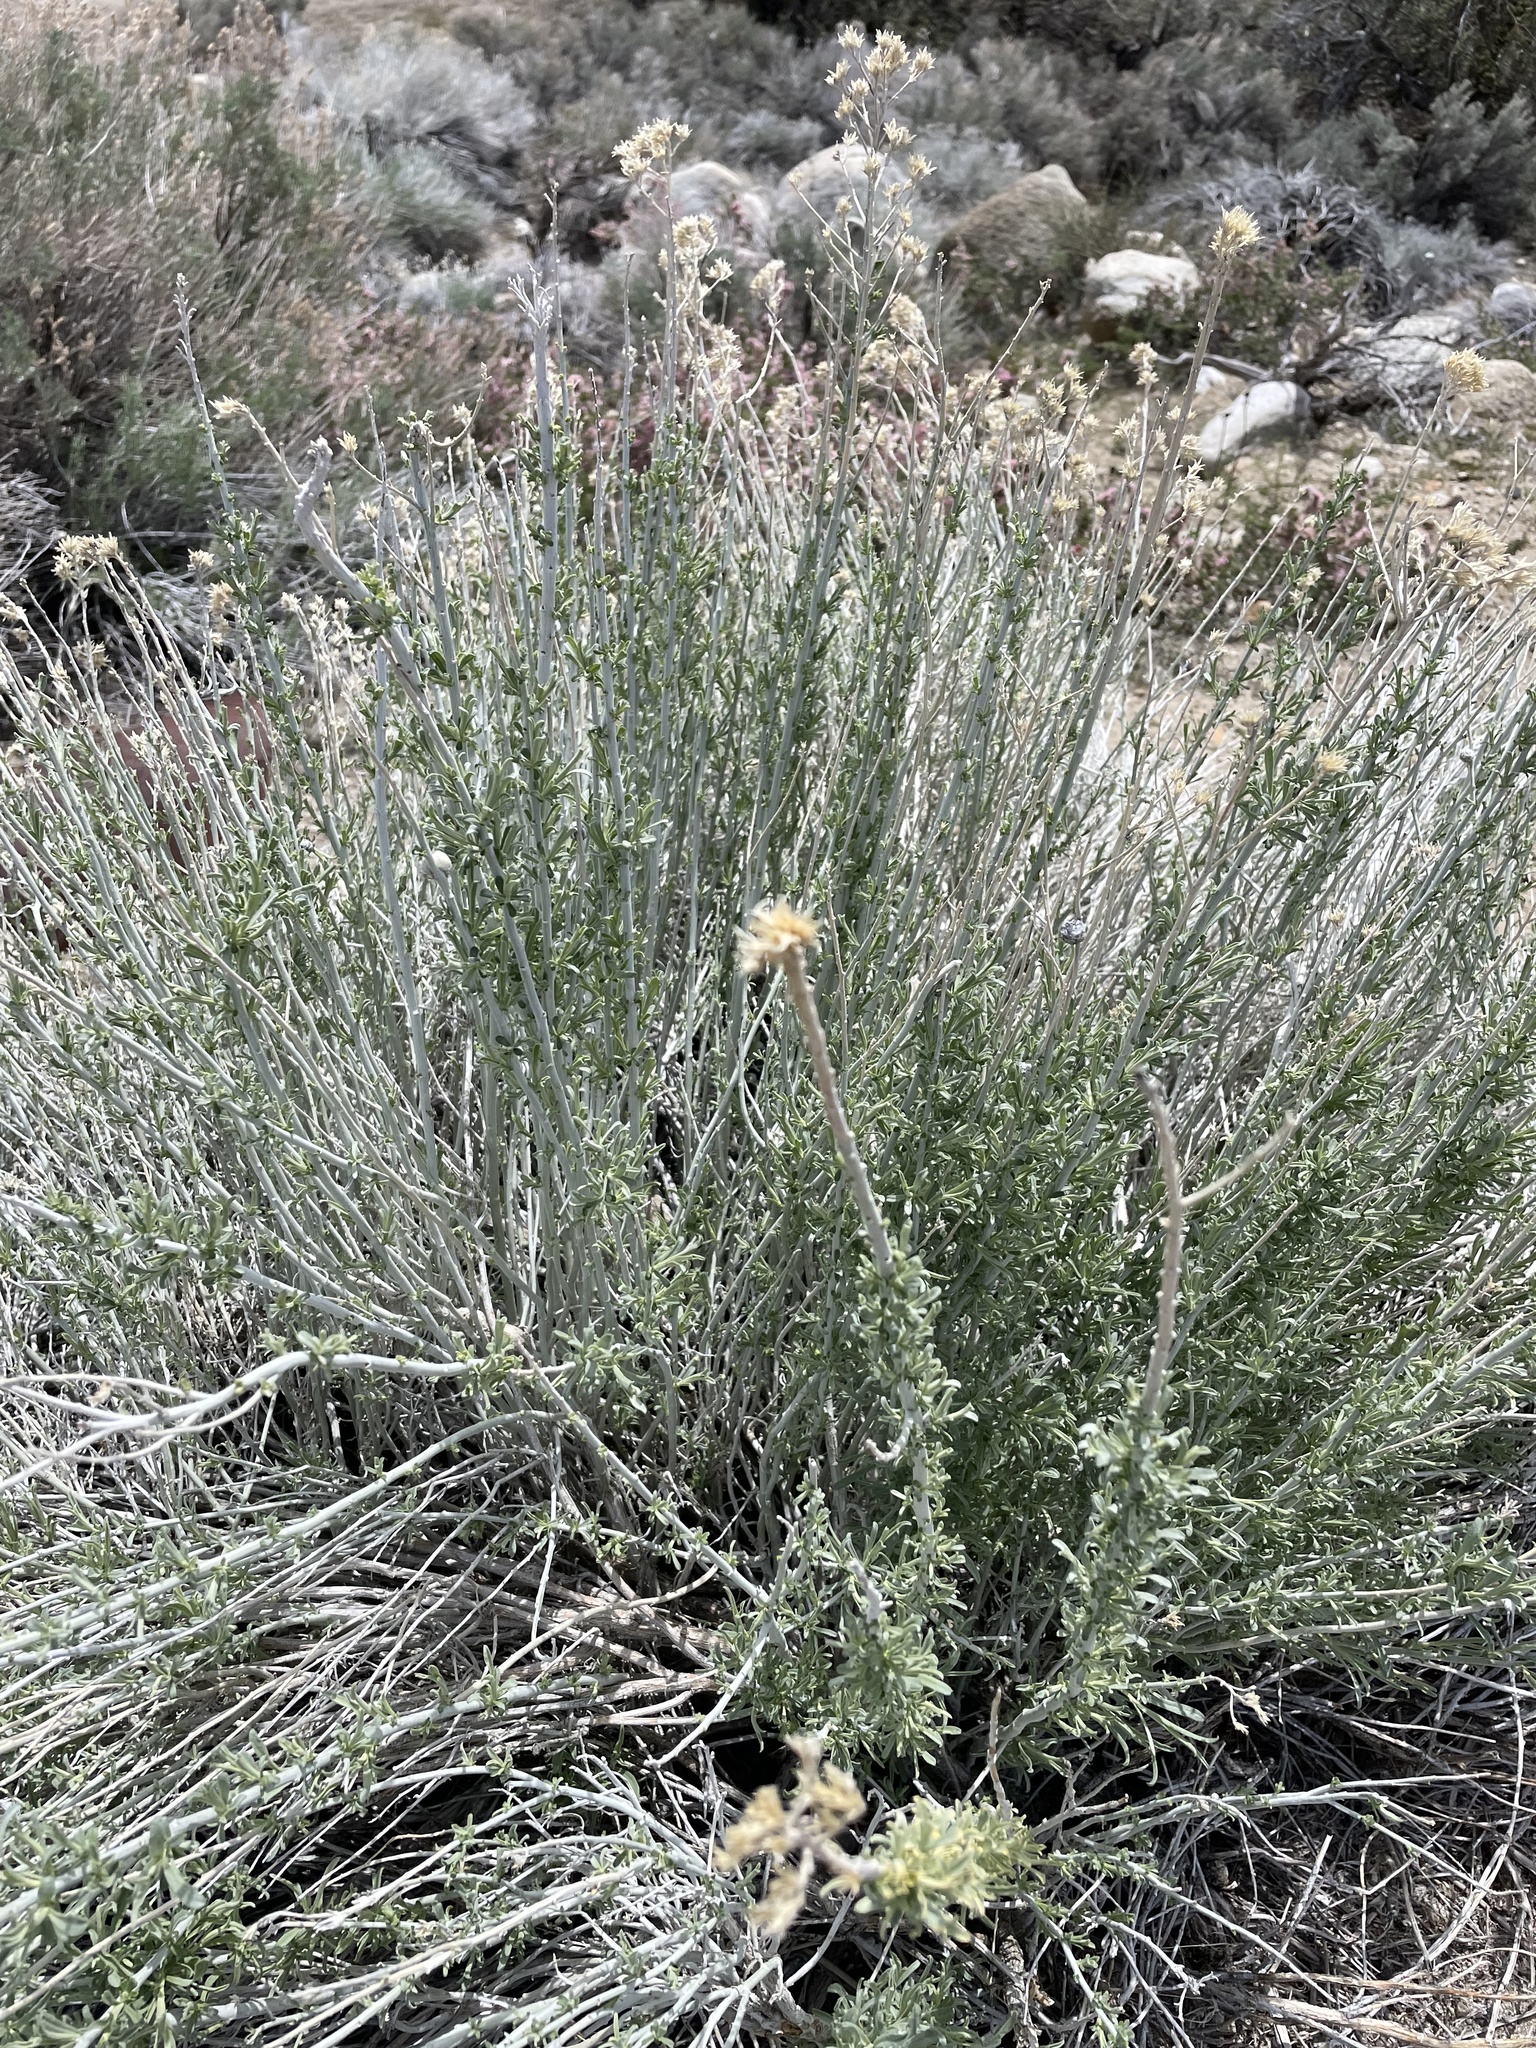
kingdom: Plantae
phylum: Tracheophyta
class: Magnoliopsida
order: Asterales
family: Asteraceae
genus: Ericameria
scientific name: Ericameria nauseosa
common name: Rubber rabbitbrush
